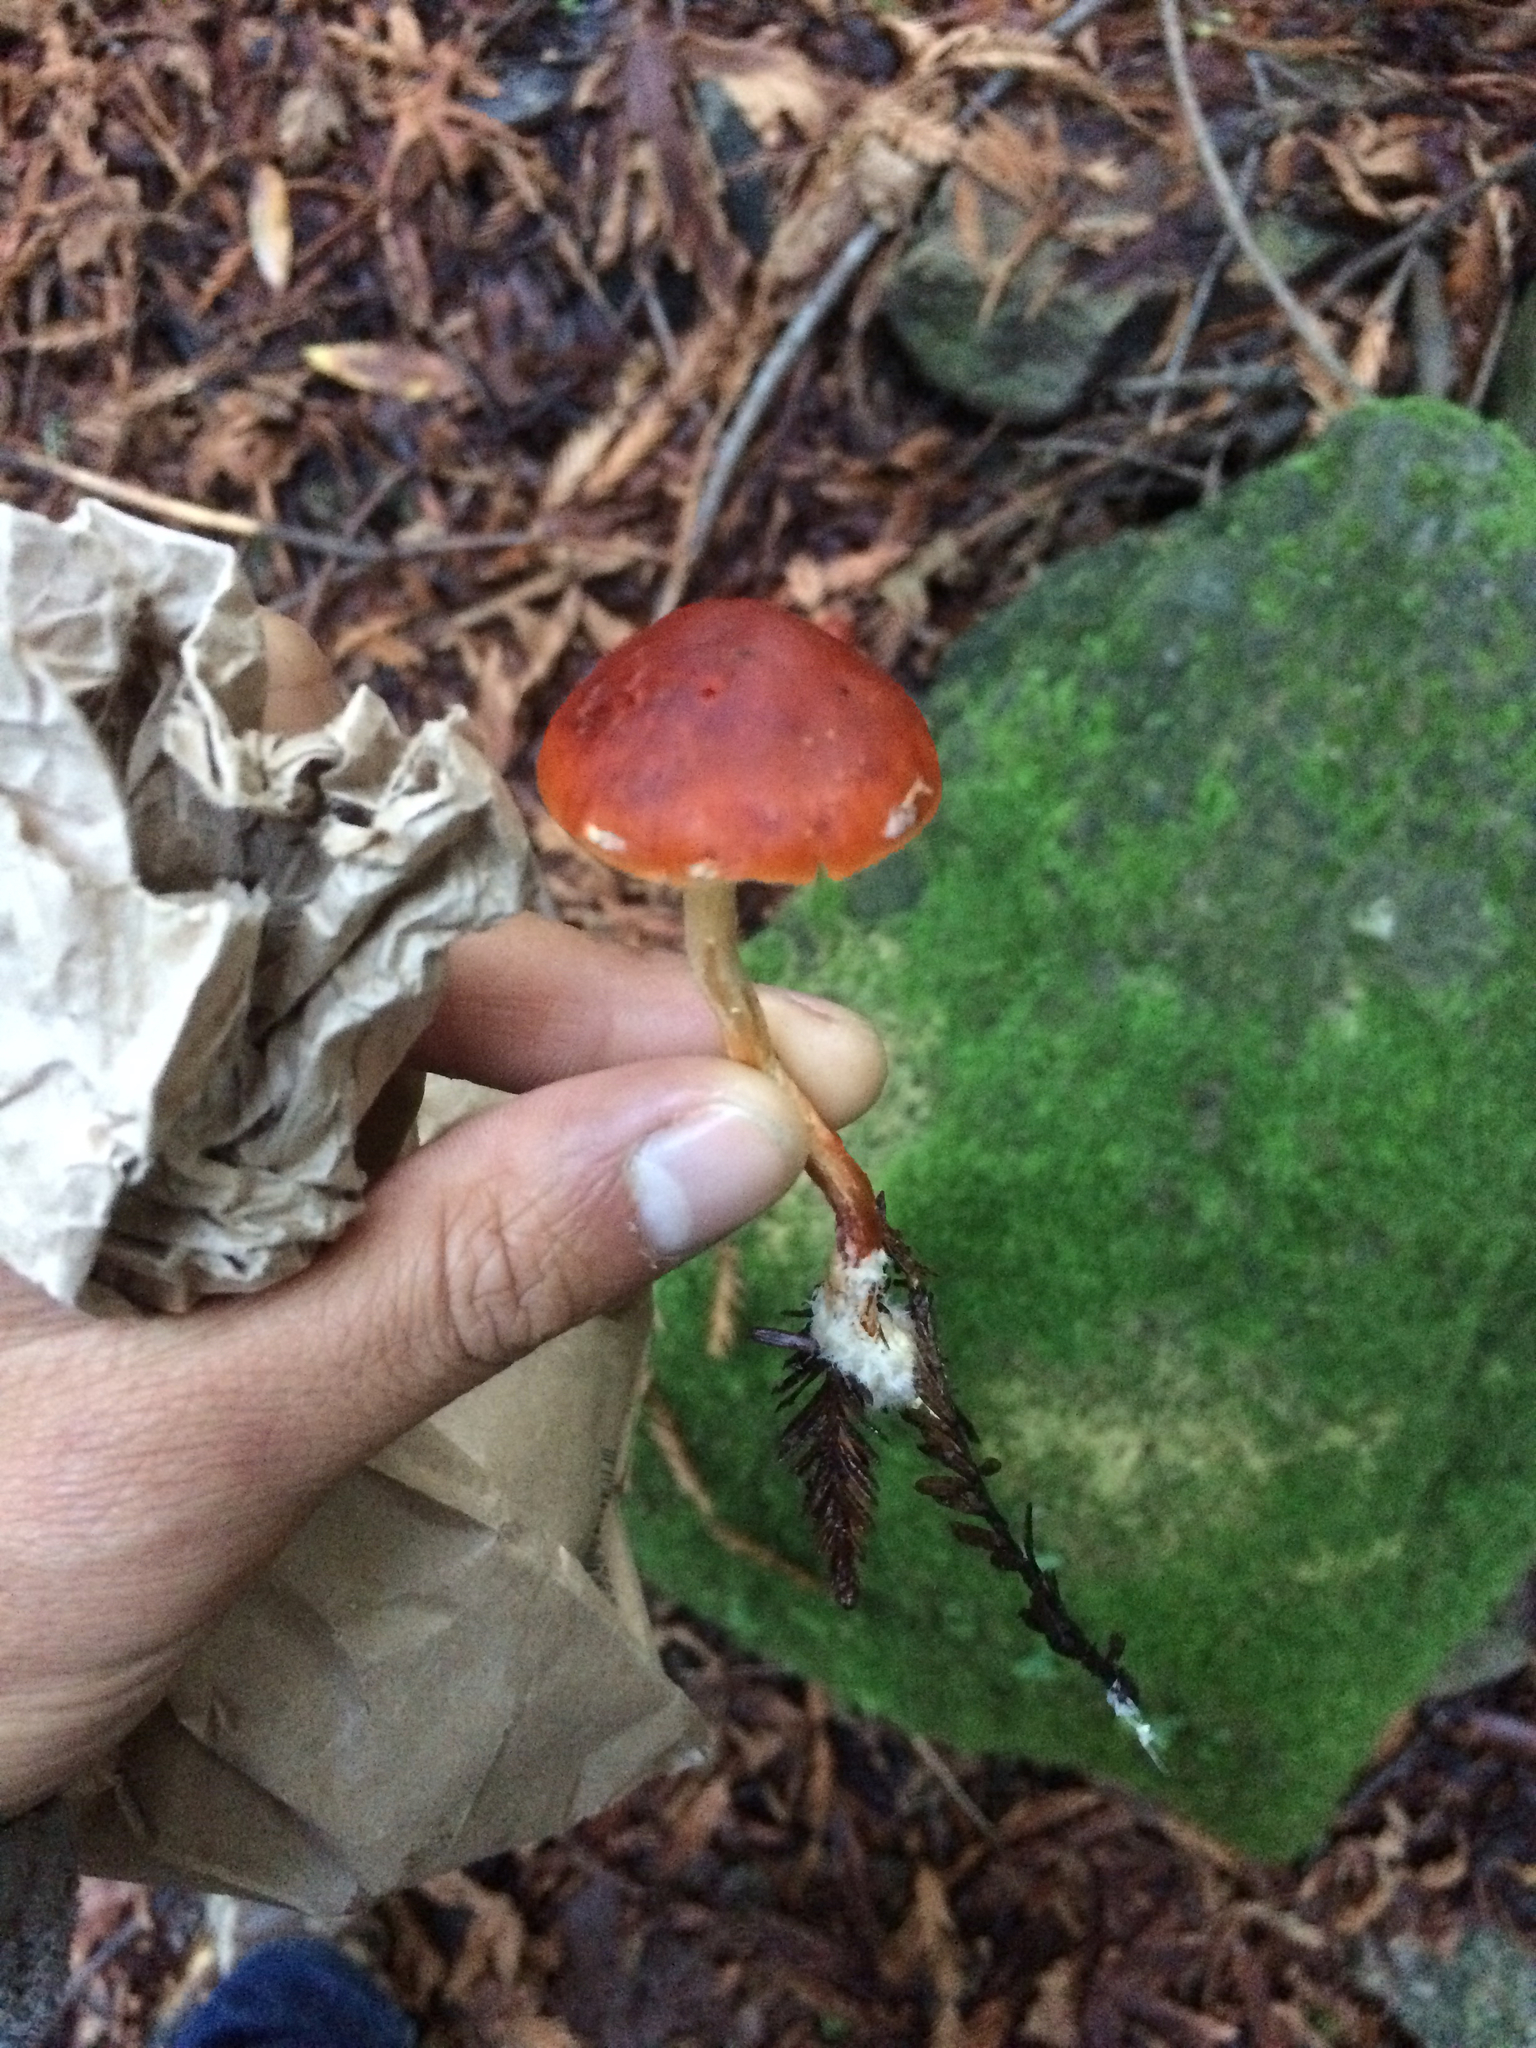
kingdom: Fungi
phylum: Basidiomycota
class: Agaricomycetes
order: Agaricales
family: Strophariaceae
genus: Leratiomyces
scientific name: Leratiomyces ceres
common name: Redlead roundhead
